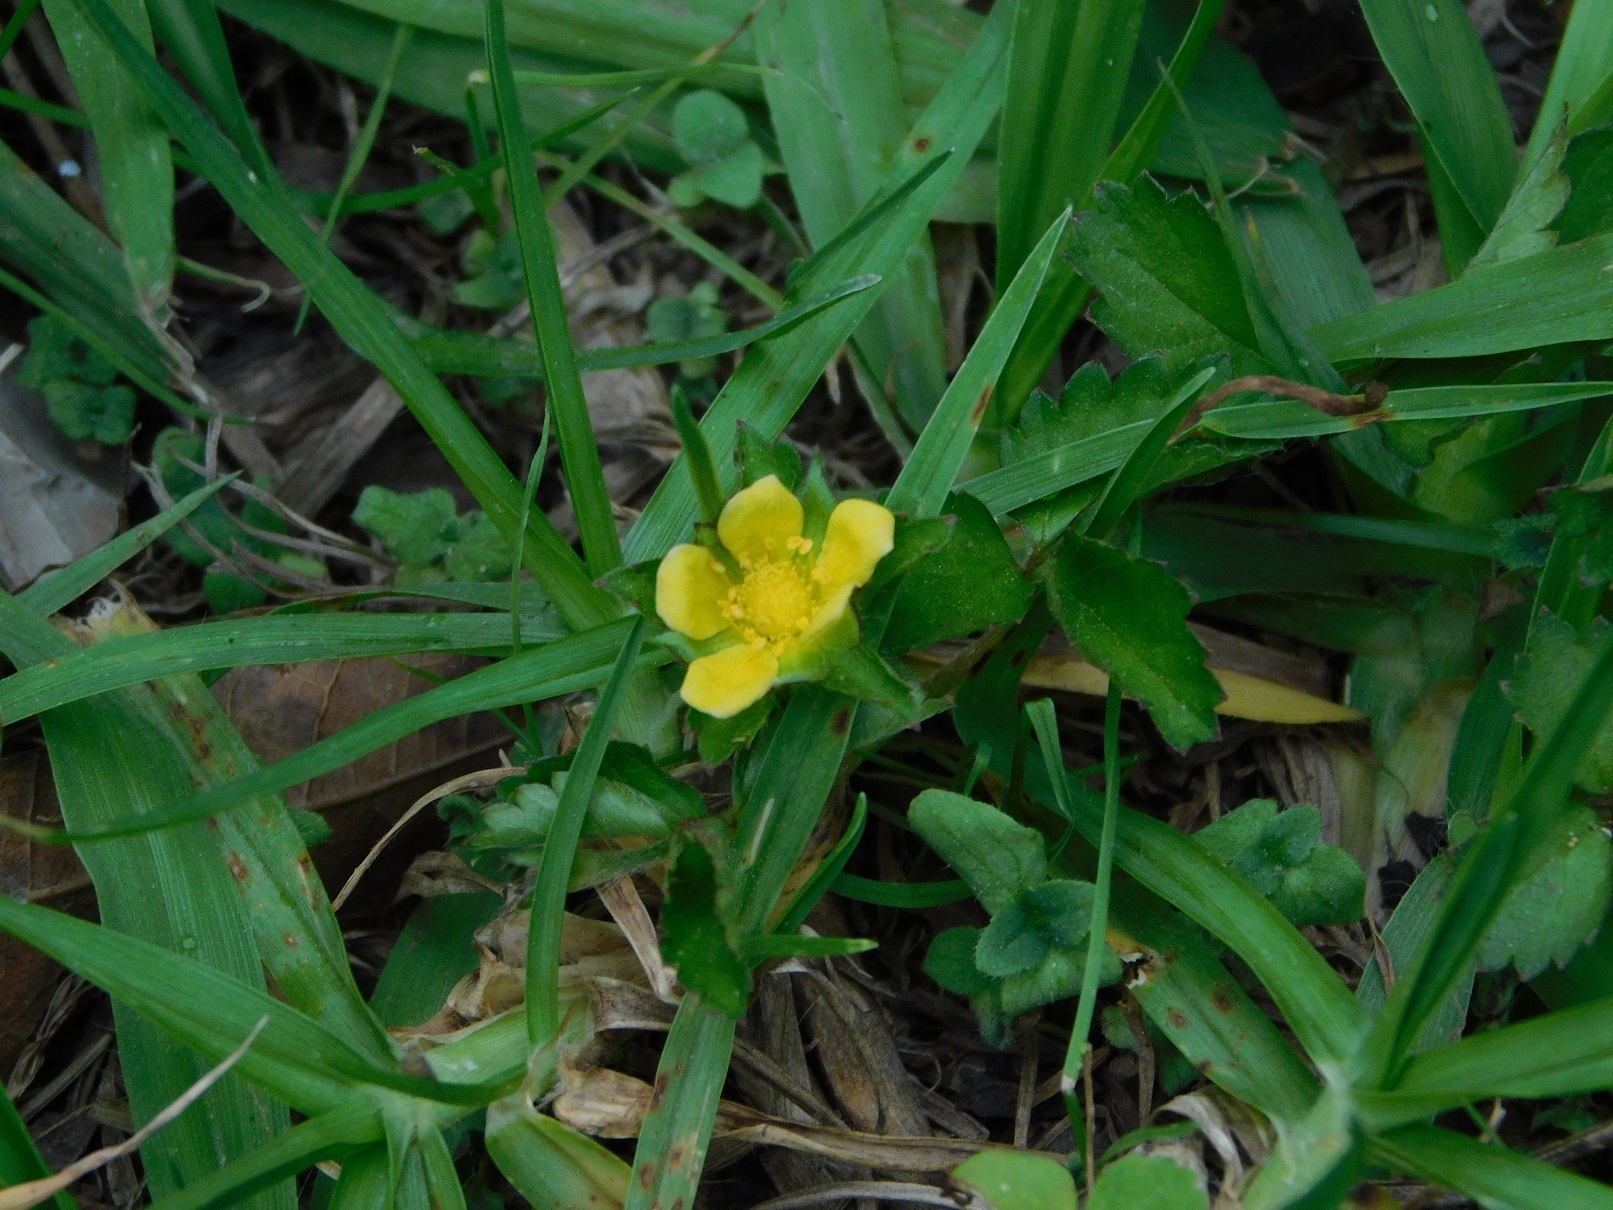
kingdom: Plantae
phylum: Tracheophyta
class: Magnoliopsida
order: Rosales
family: Rosaceae
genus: Potentilla
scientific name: Potentilla indica
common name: Yellow-flowered strawberry
